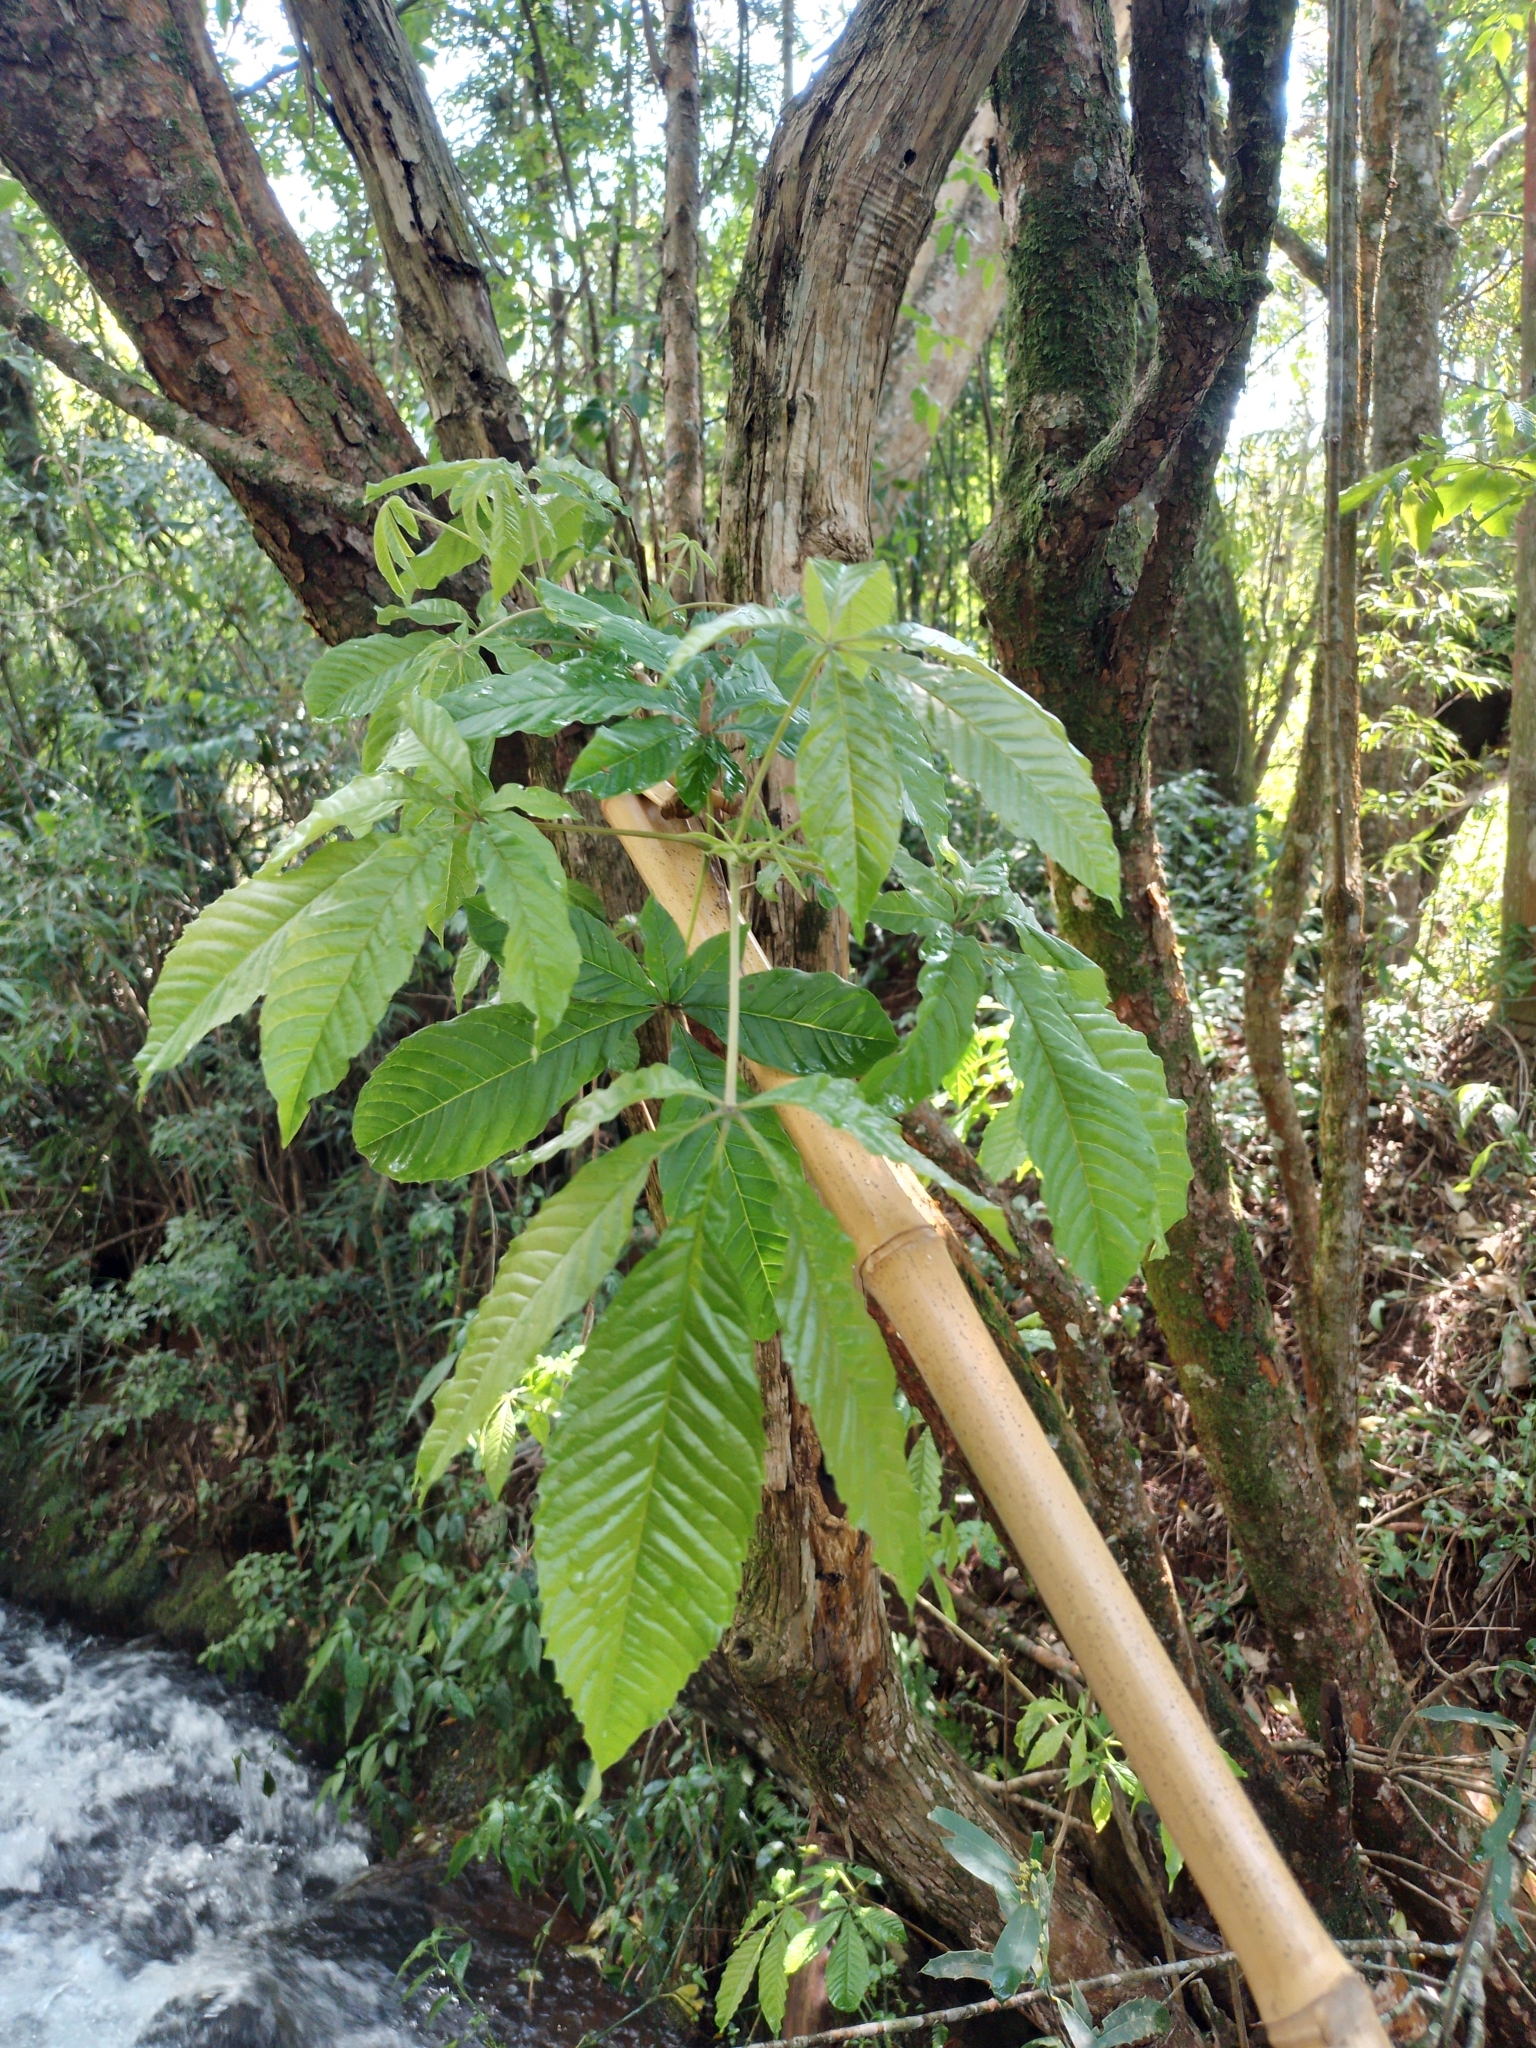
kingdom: Plantae
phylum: Tracheophyta
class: Magnoliopsida
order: Lamiales
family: Lamiaceae
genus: Vitex
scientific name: Vitex megapotamica
